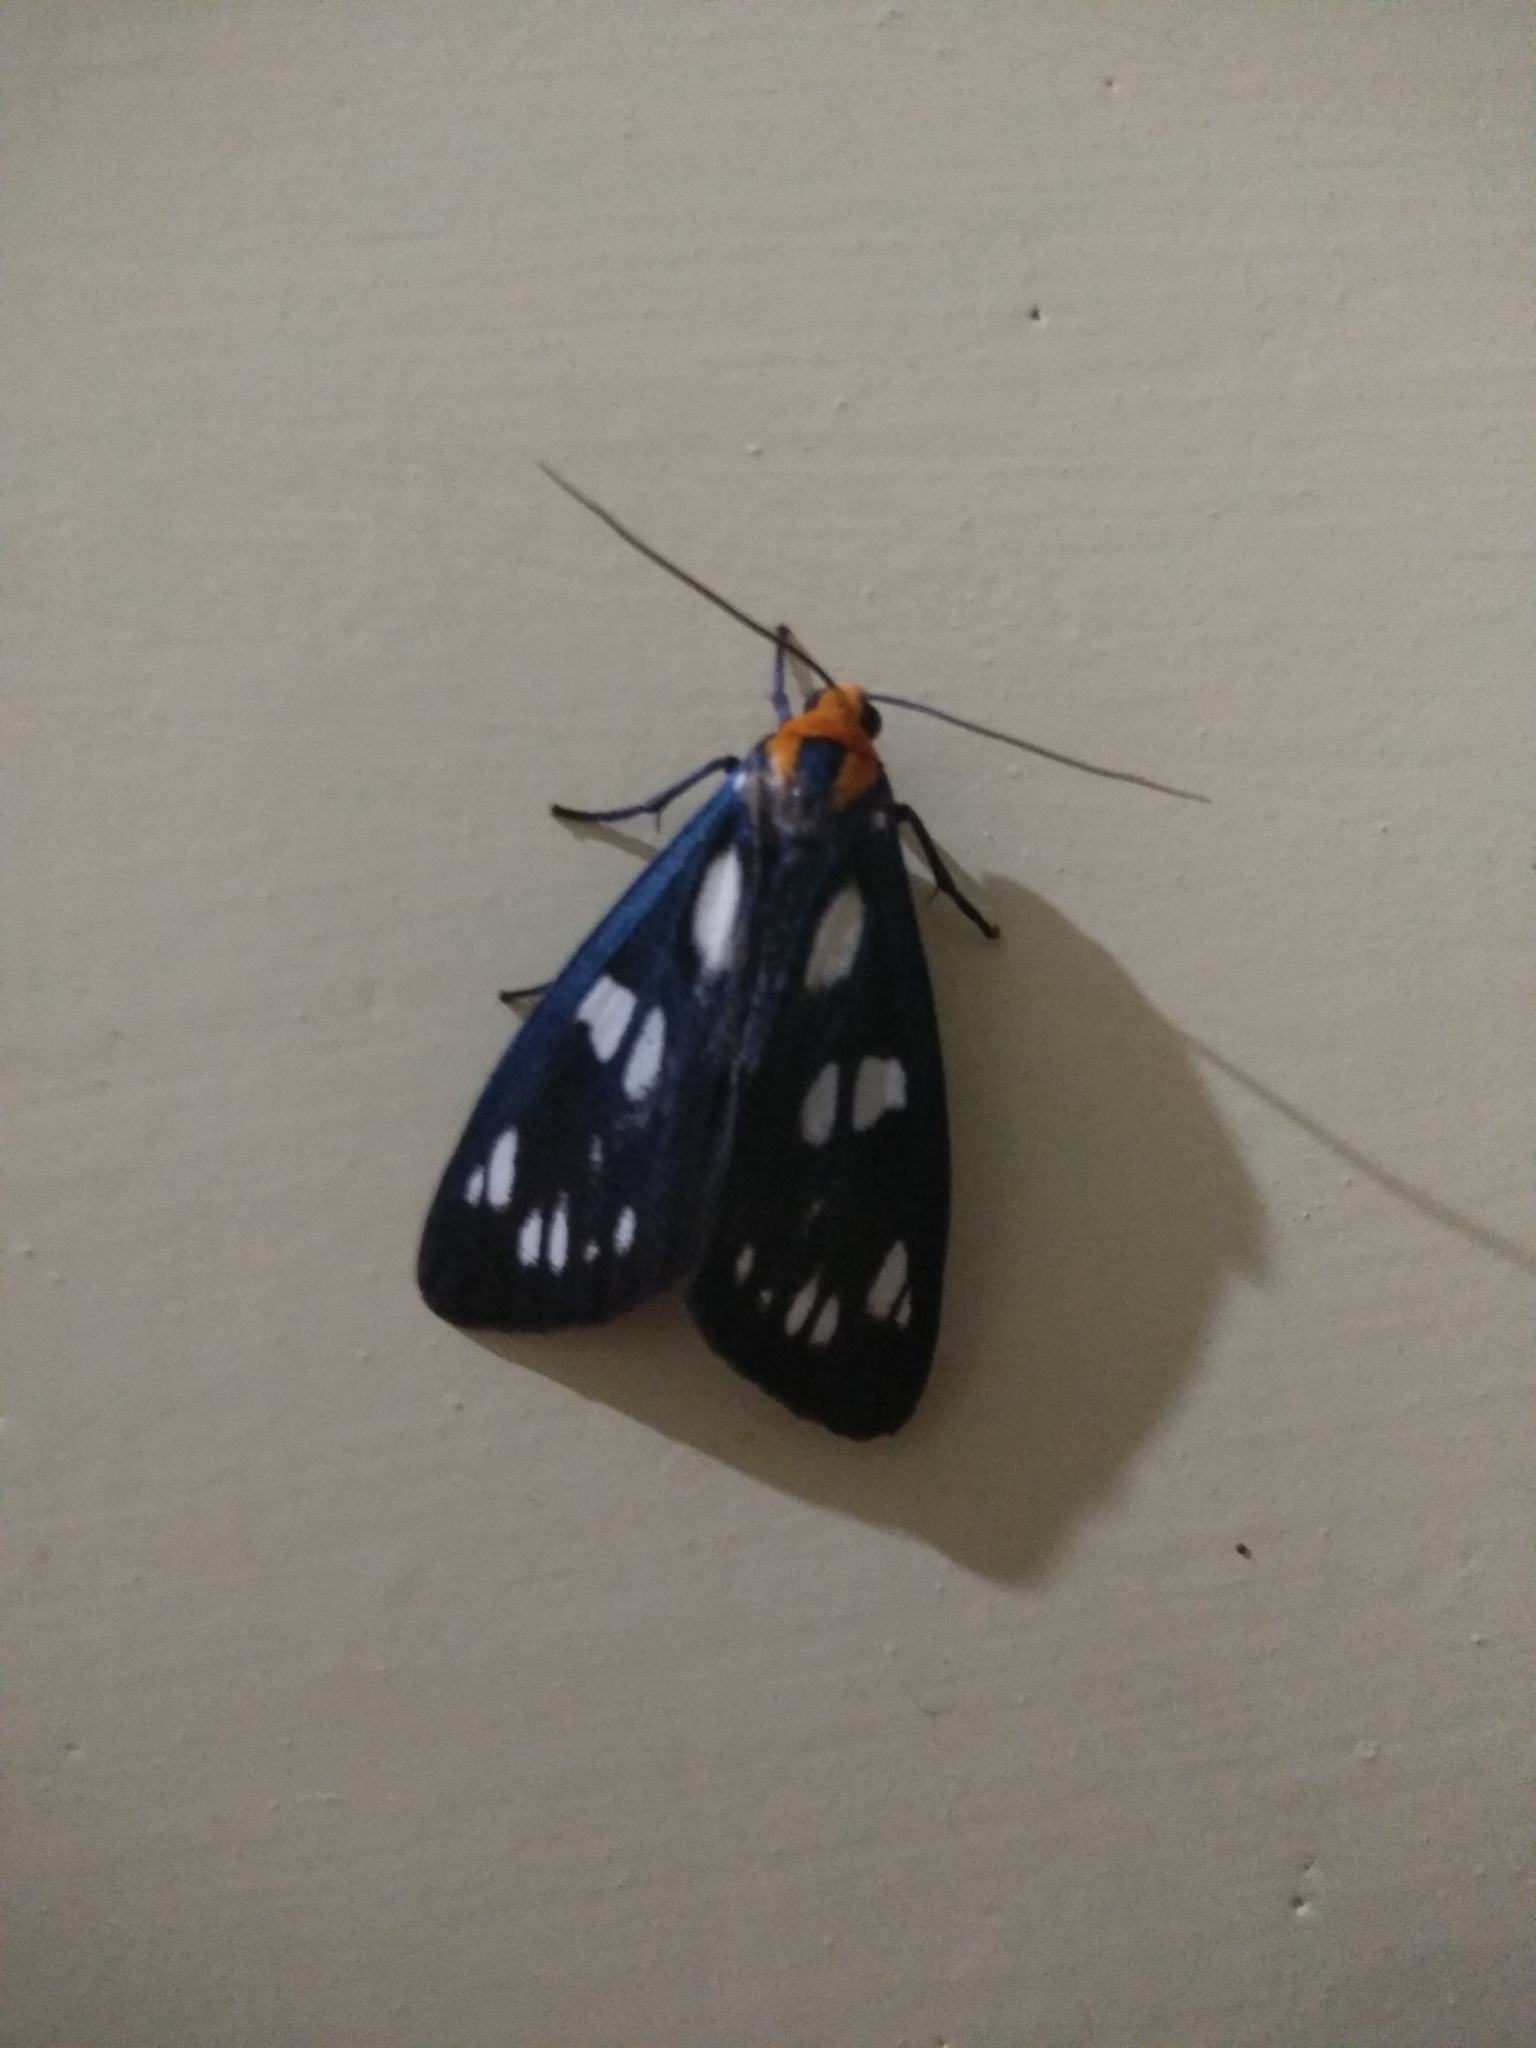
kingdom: Animalia
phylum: Arthropoda
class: Insecta
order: Lepidoptera
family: Erebidae
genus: Macrobrochis
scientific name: Macrobrochis gigas
